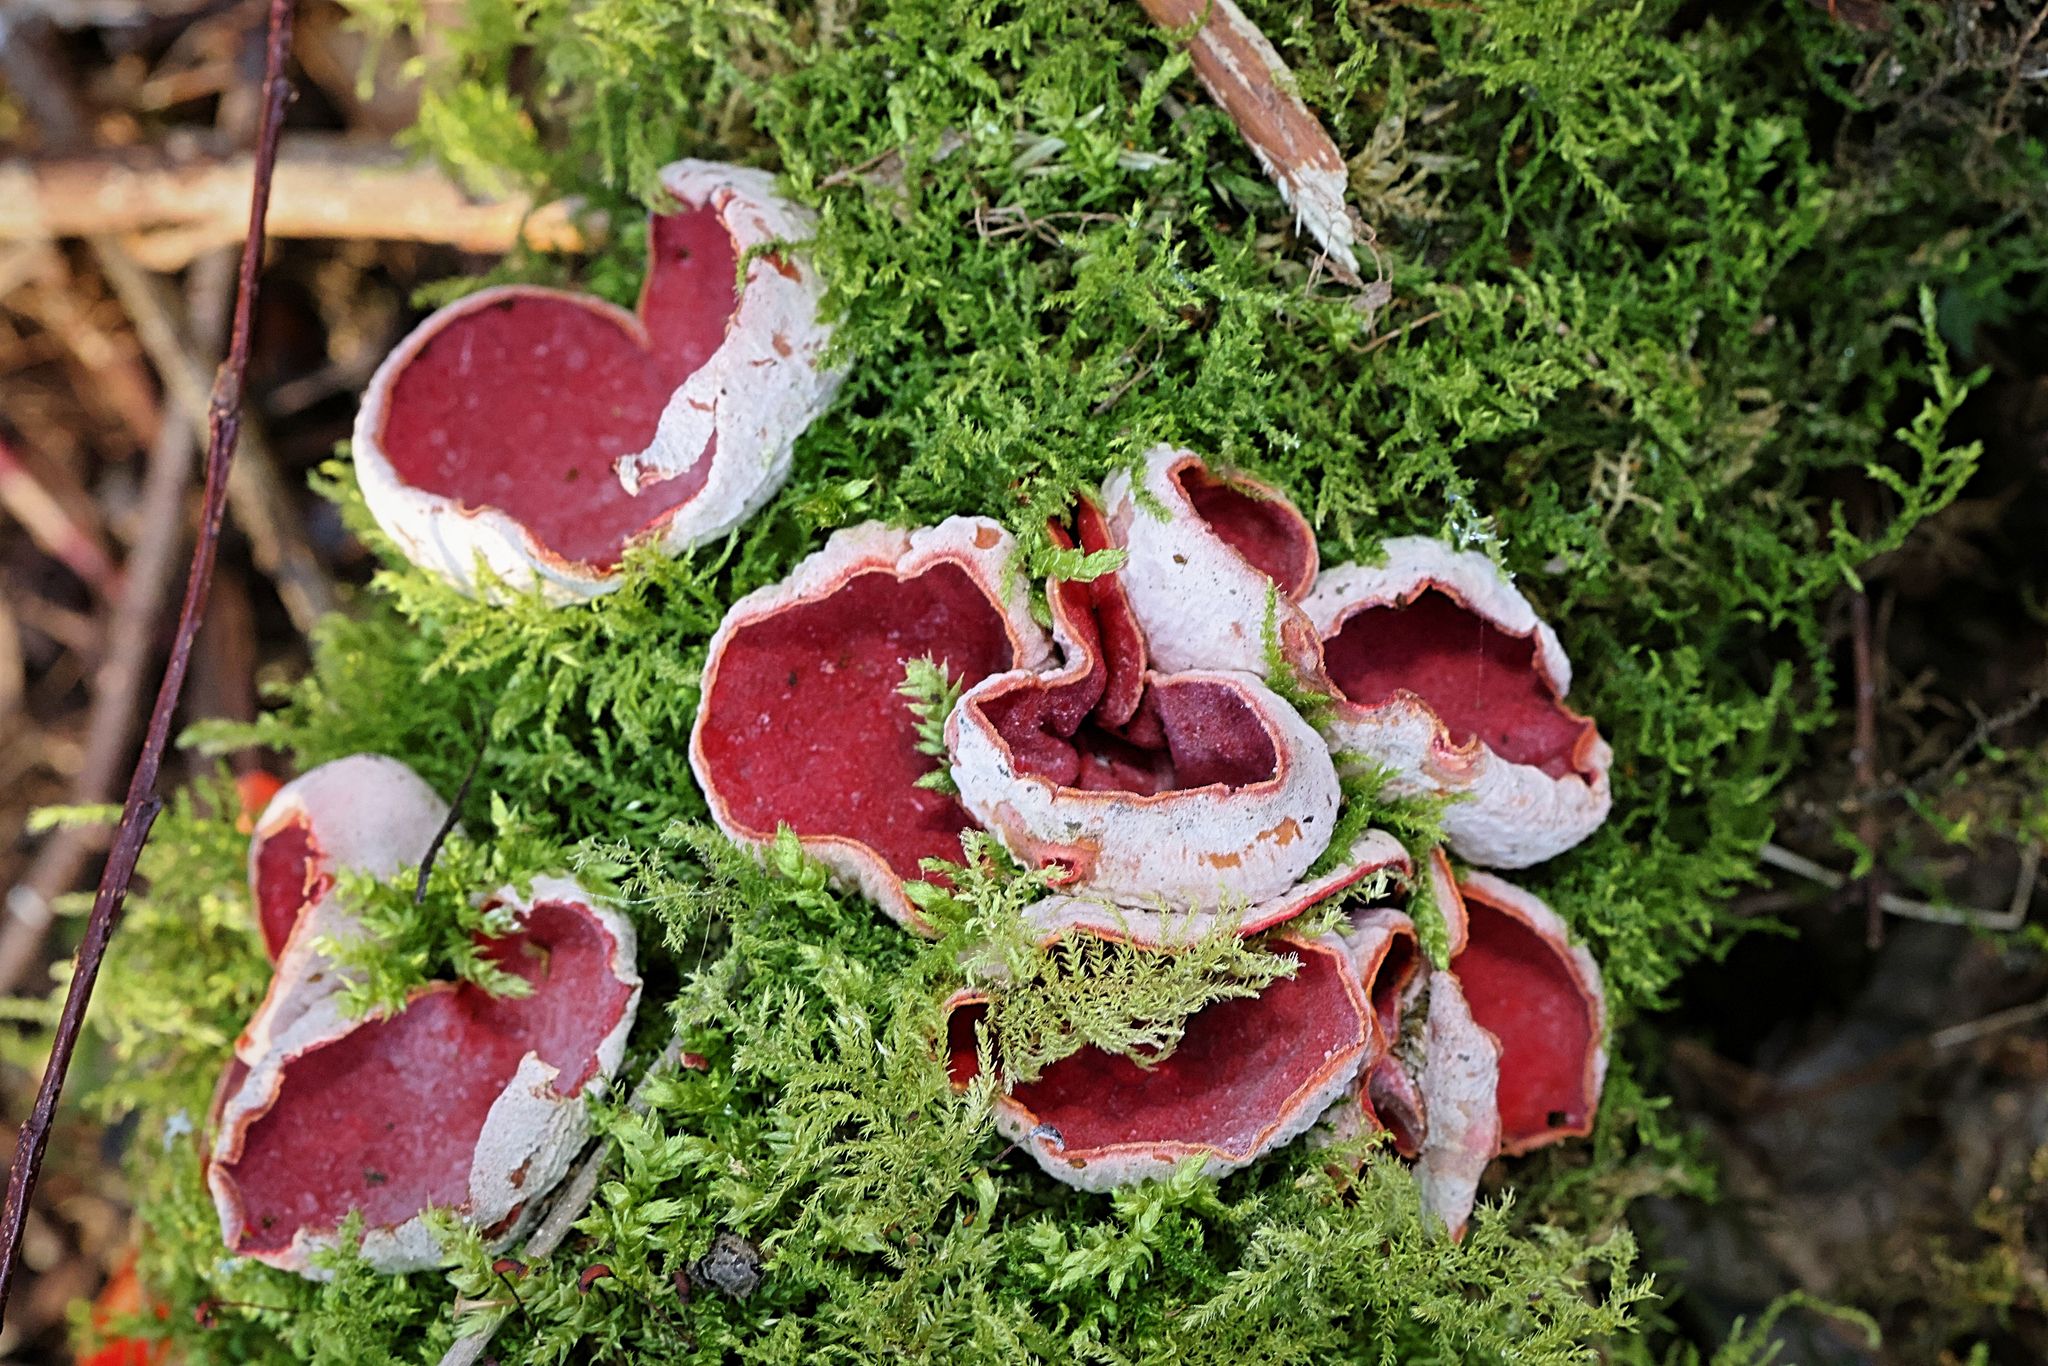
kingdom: Fungi
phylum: Ascomycota
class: Pezizomycetes
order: Pezizales
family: Sarcoscyphaceae
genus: Sarcoscypha
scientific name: Sarcoscypha
